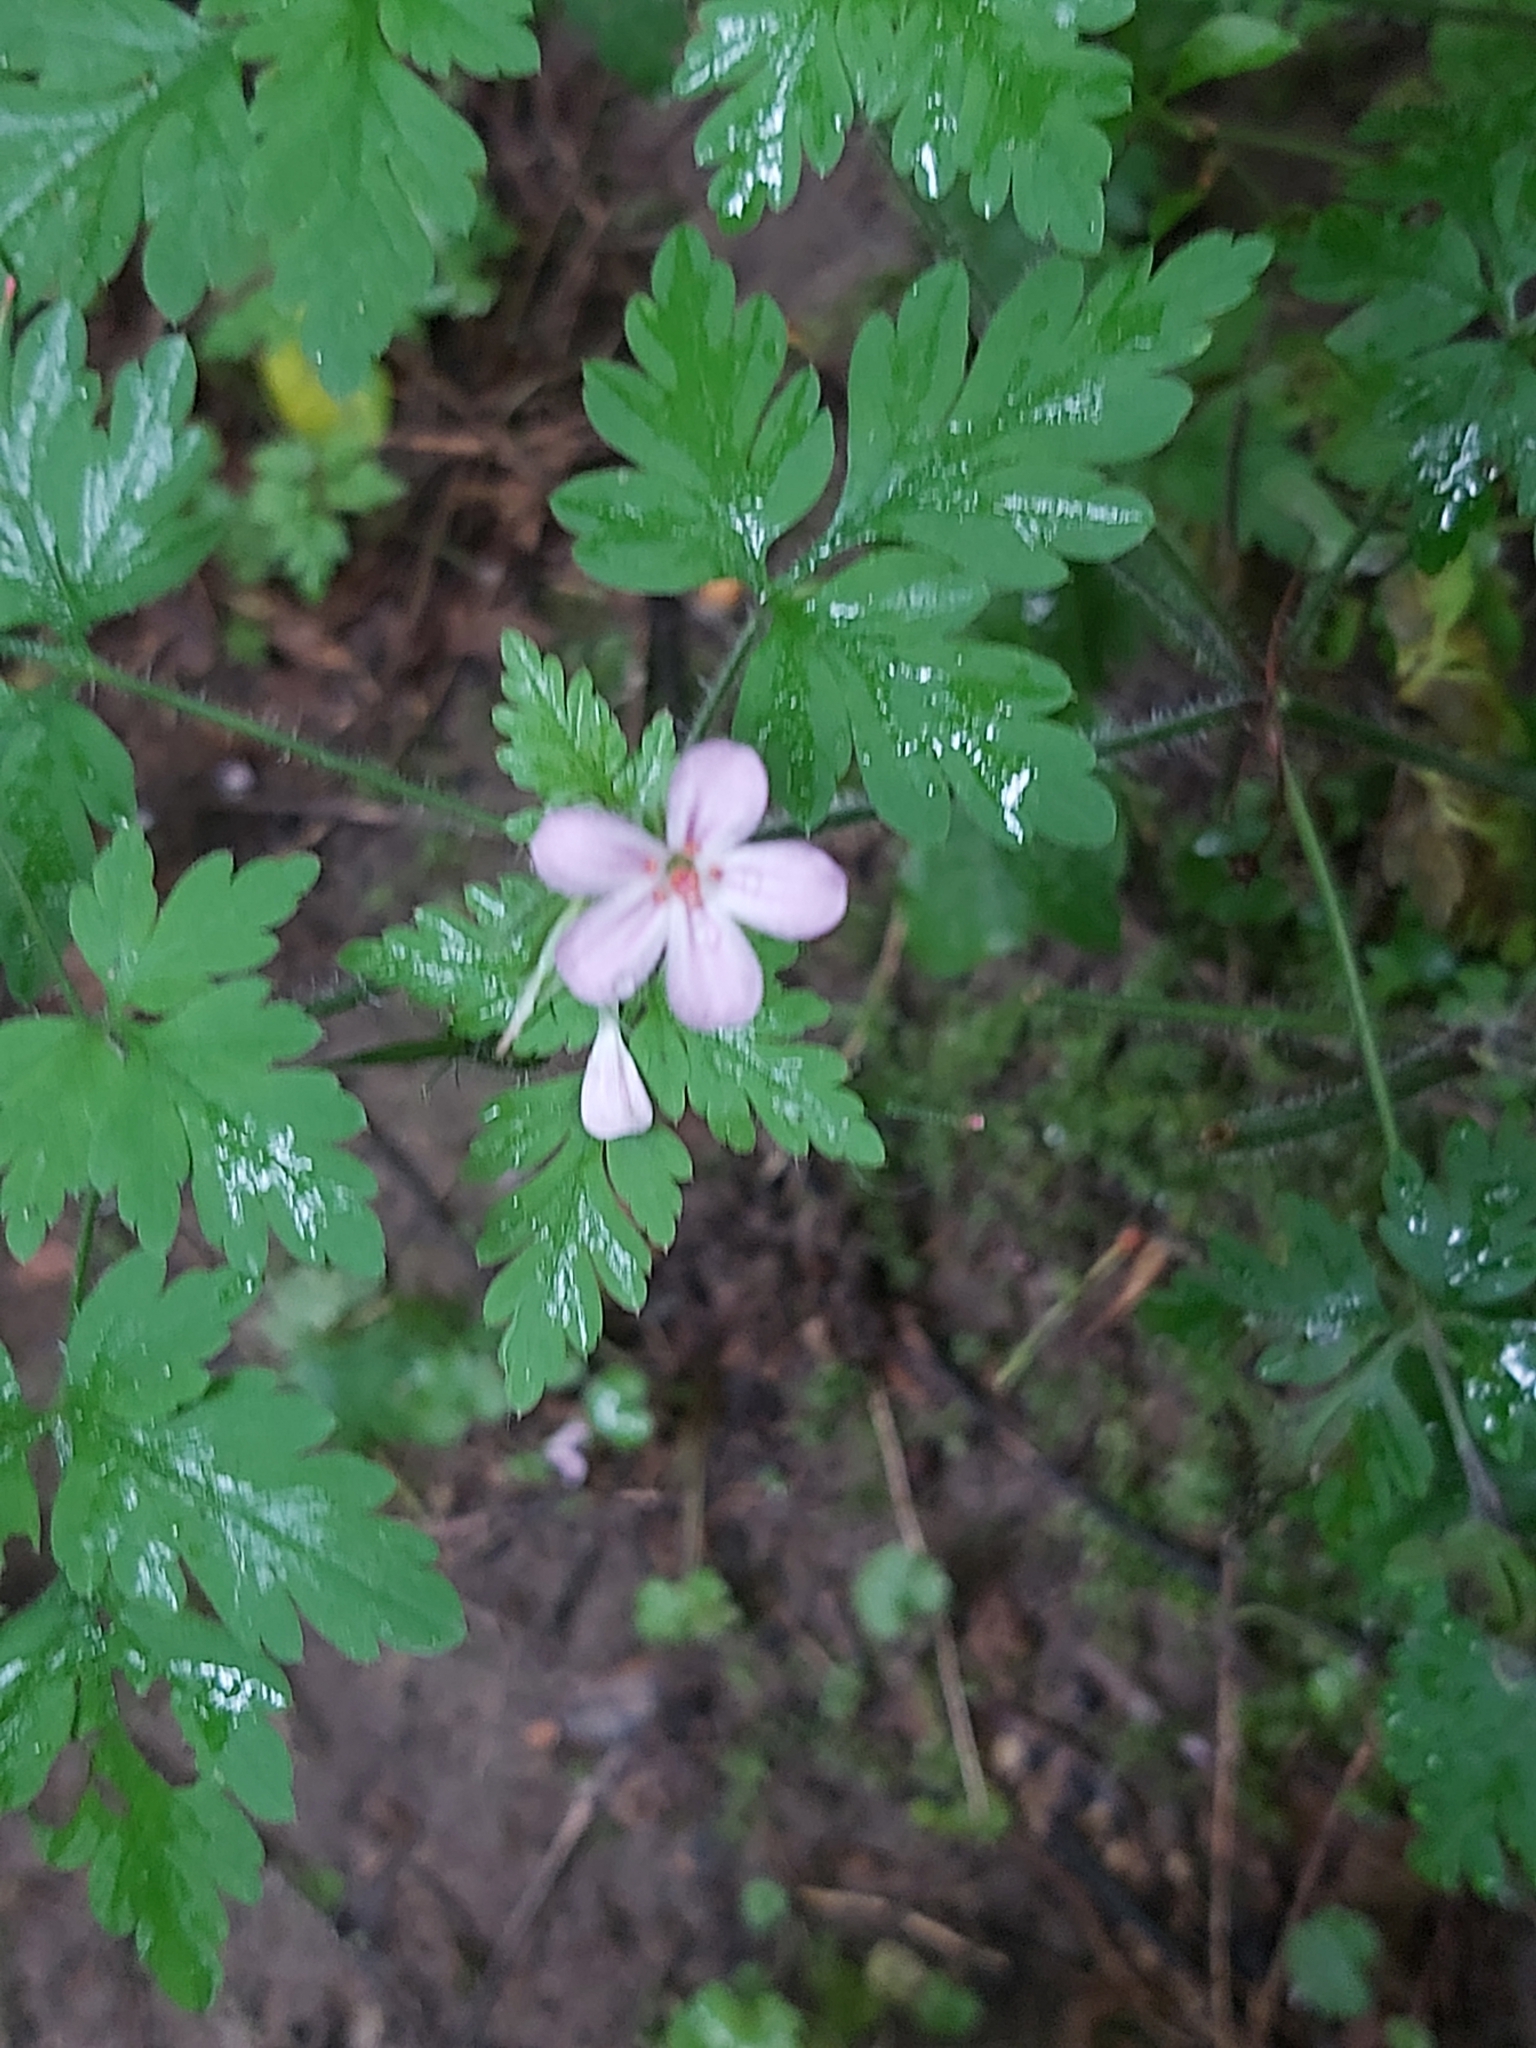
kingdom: Plantae
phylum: Tracheophyta
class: Magnoliopsida
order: Geraniales
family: Geraniaceae
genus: Geranium
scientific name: Geranium robertianum
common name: Herb-robert
